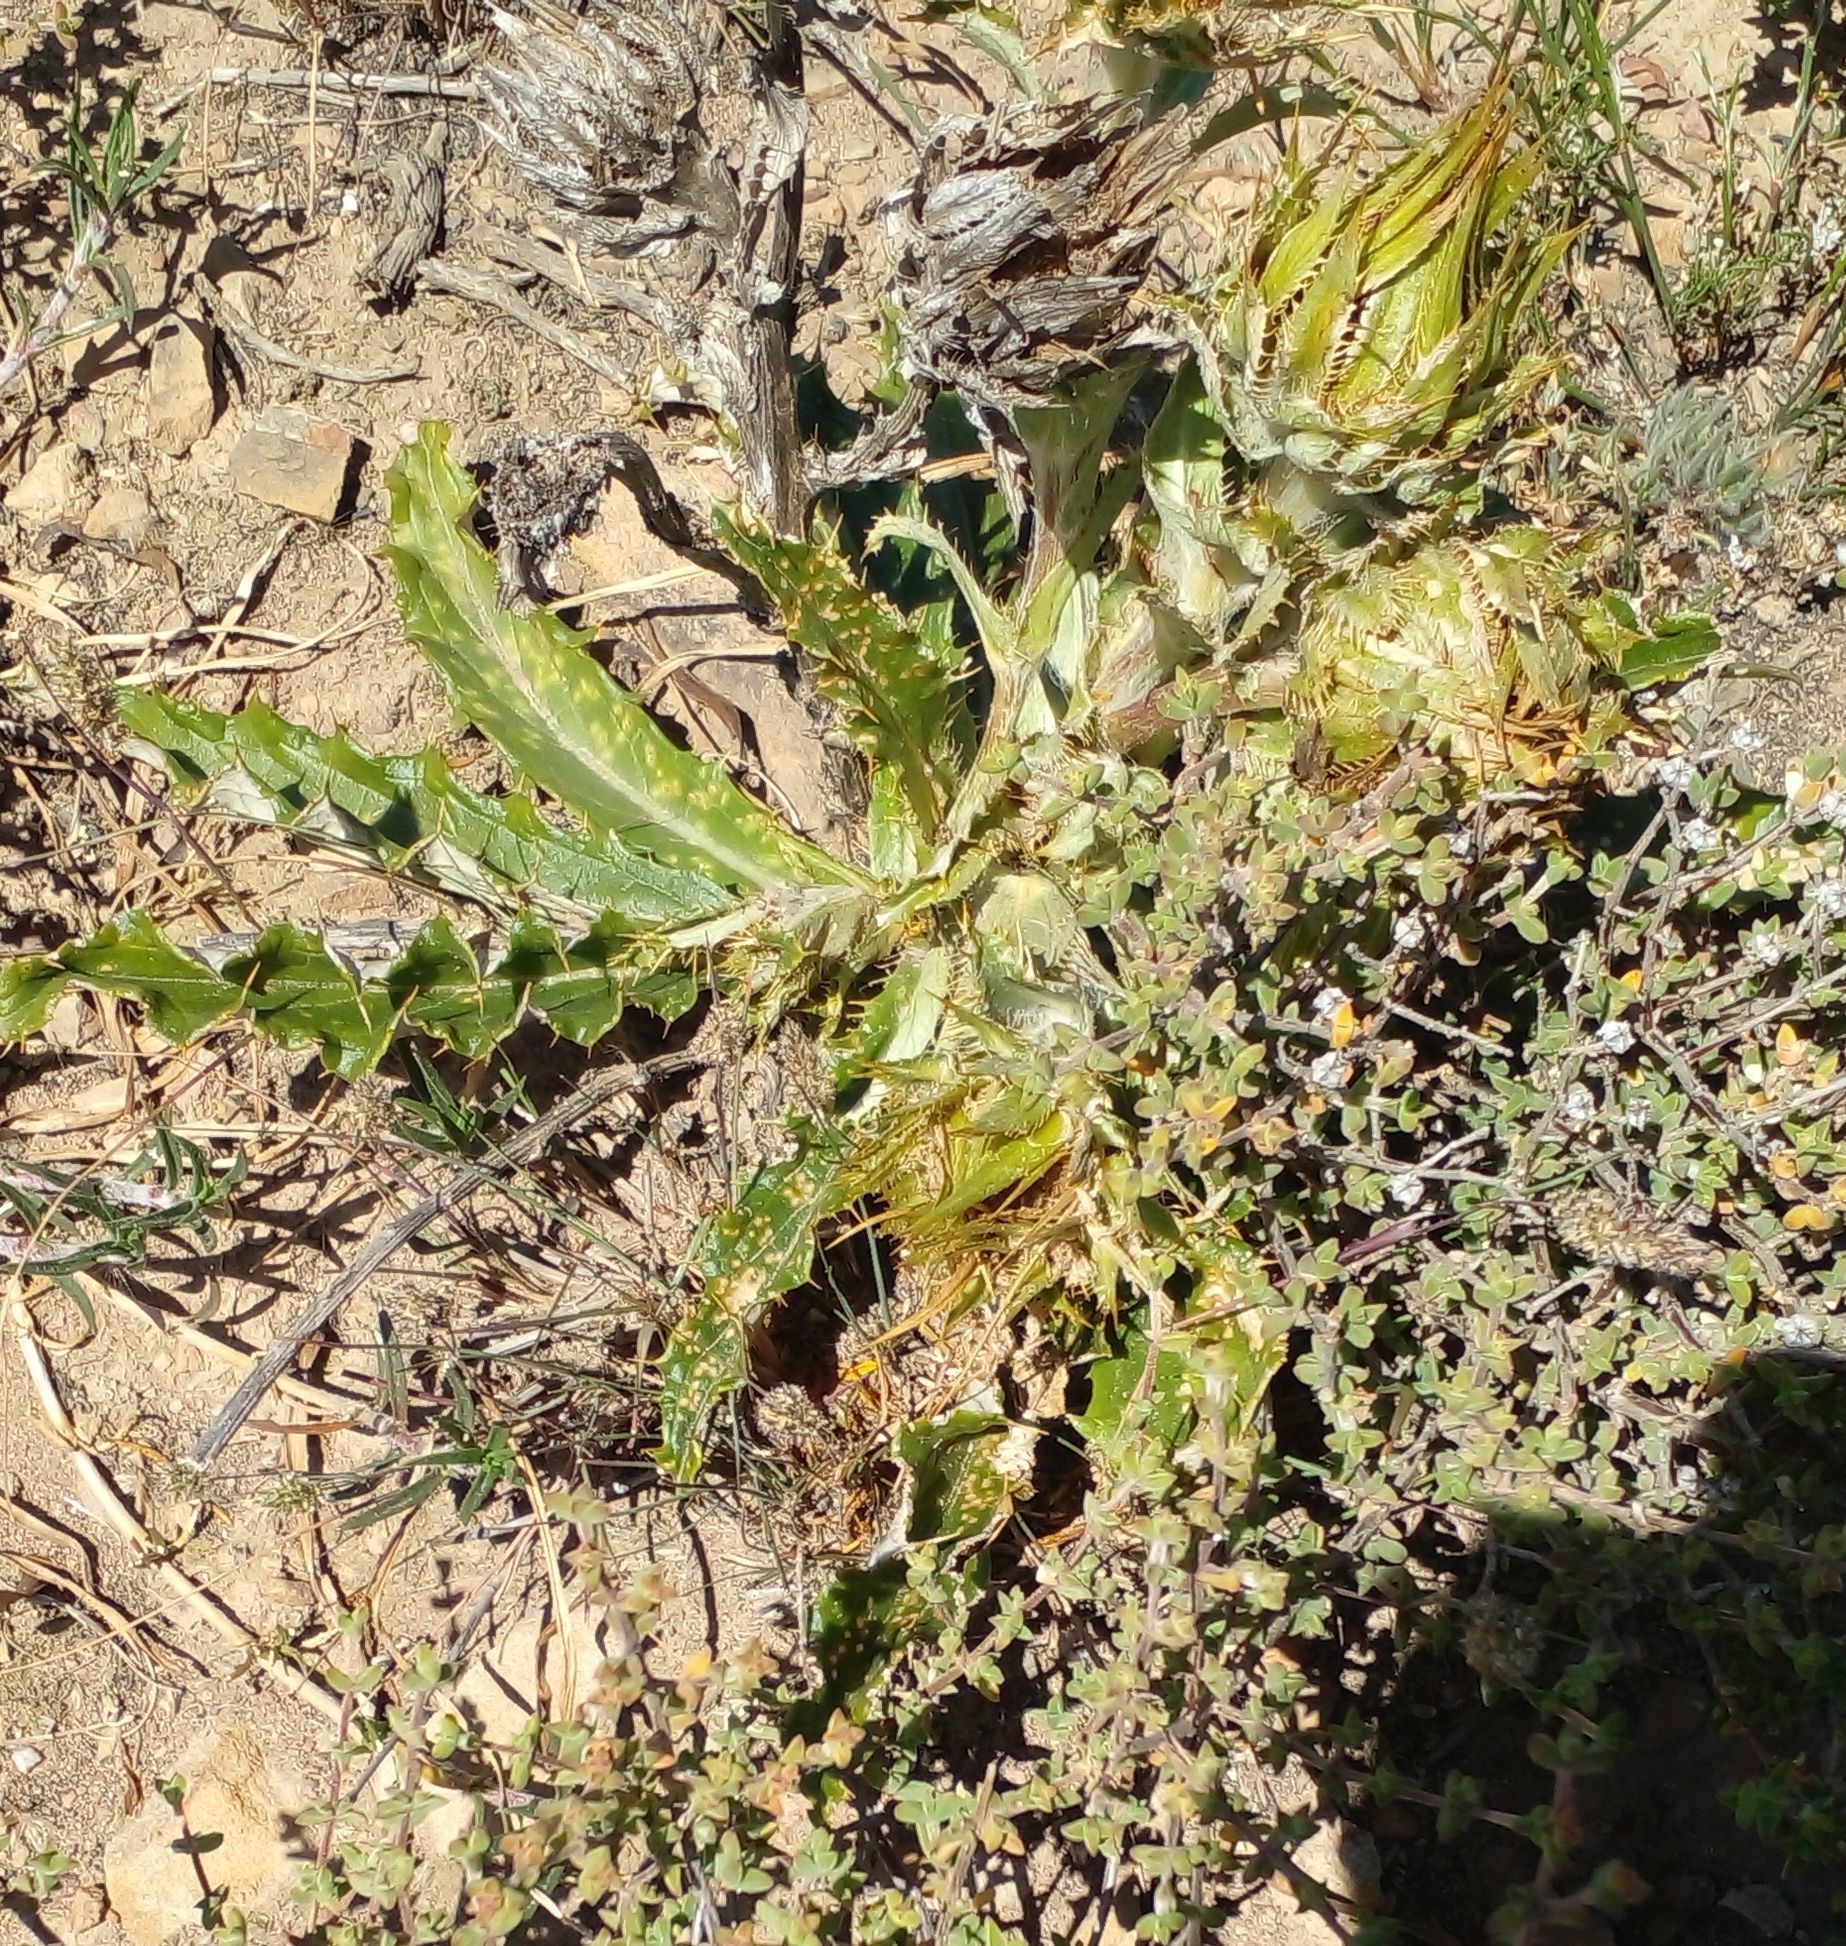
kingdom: Plantae
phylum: Tracheophyta
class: Magnoliopsida
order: Asterales
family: Asteraceae
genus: Berkheya
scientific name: Berkheya armata
